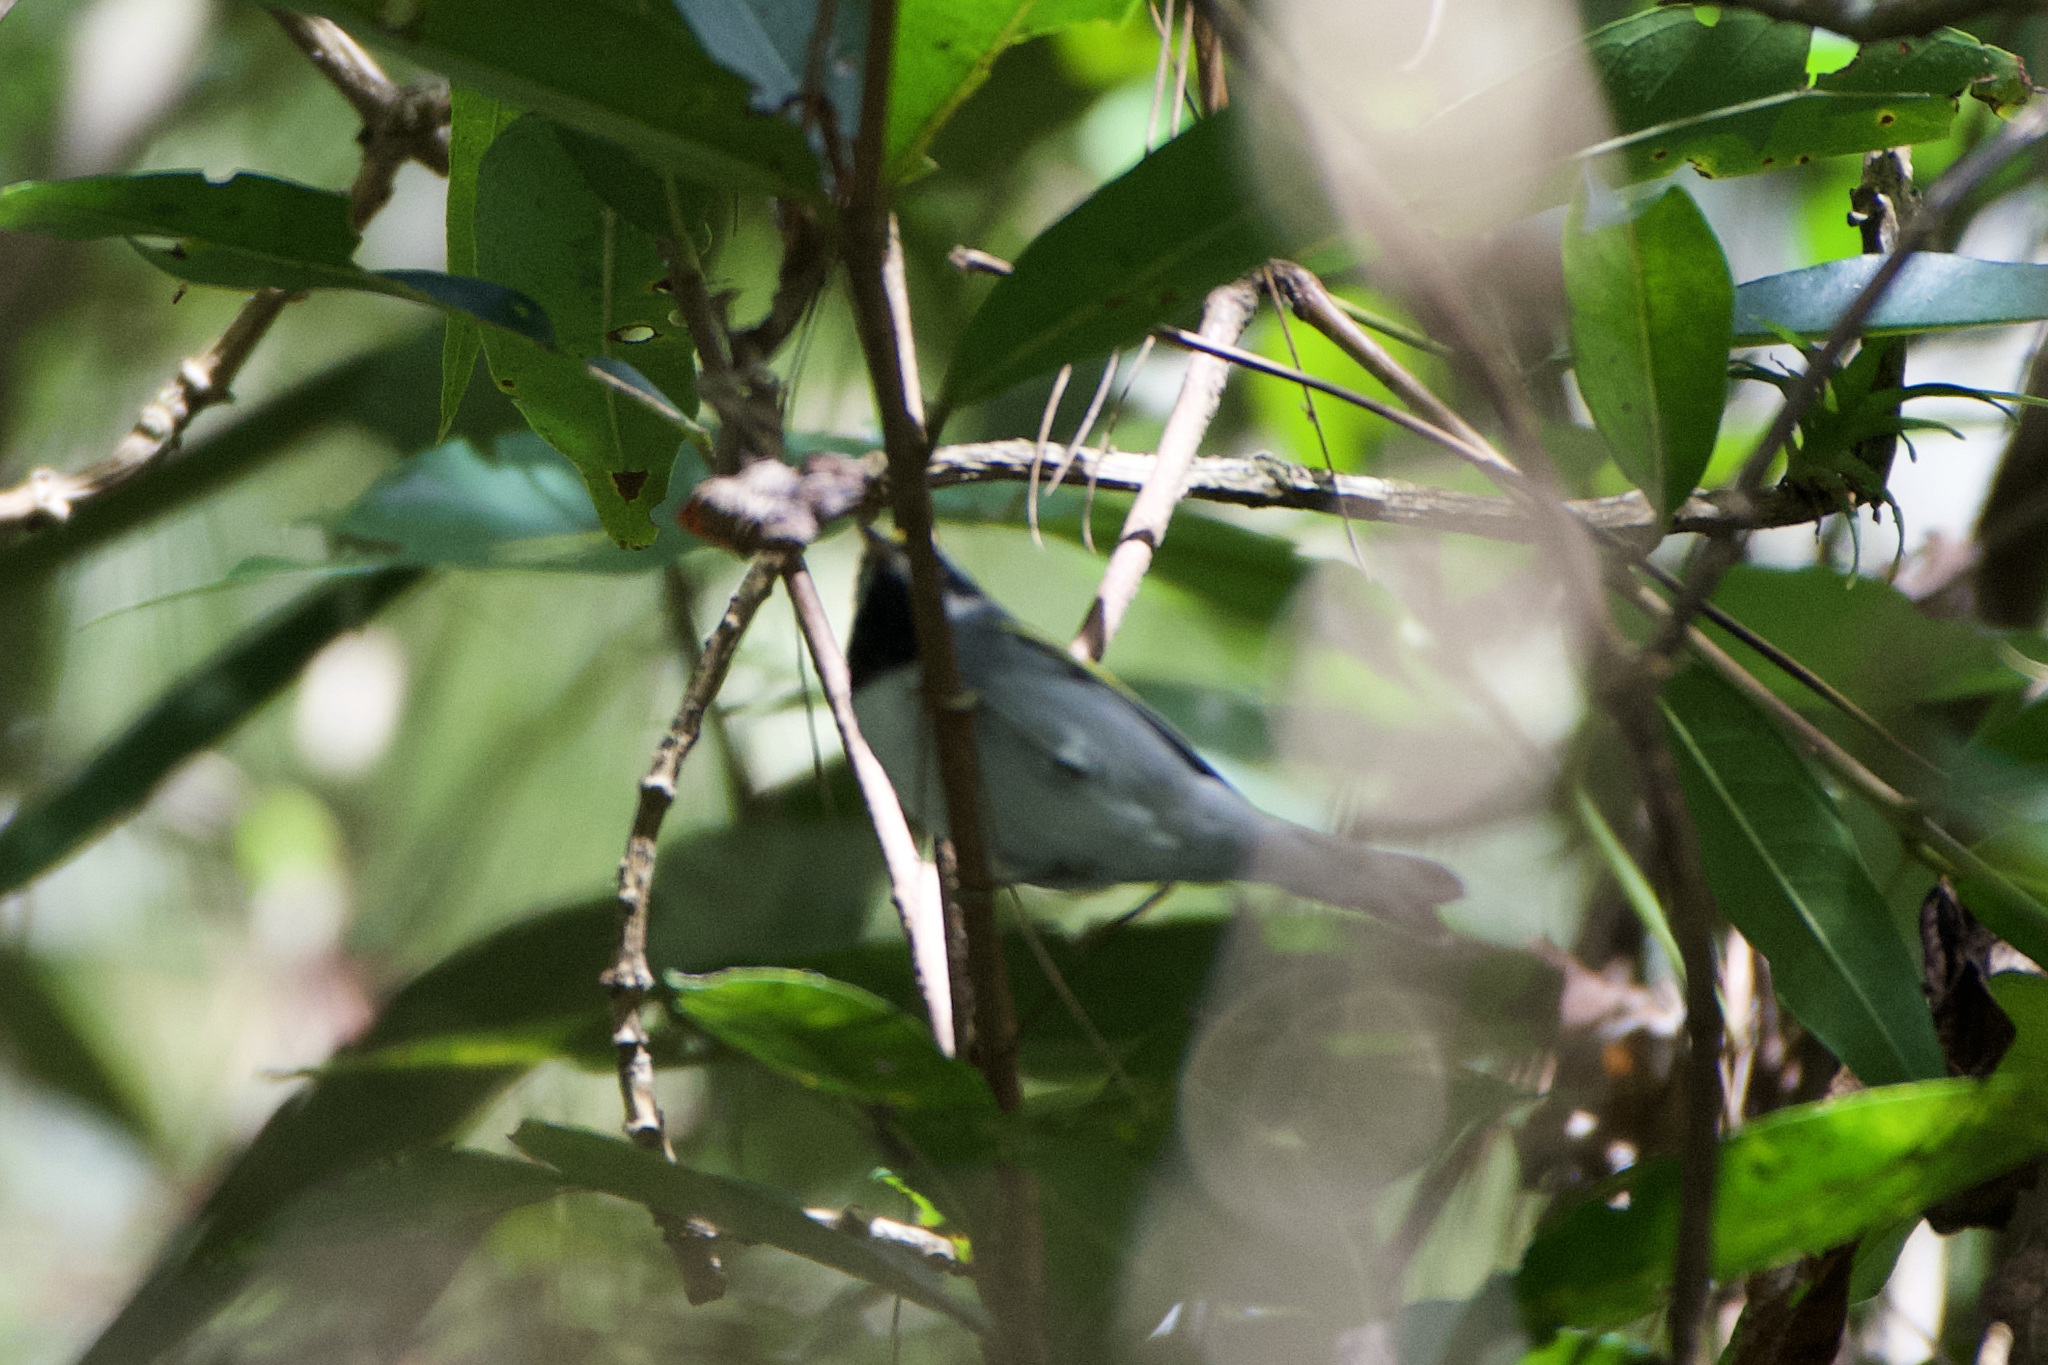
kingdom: Animalia
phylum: Chordata
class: Aves
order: Passeriformes
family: Parulidae
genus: Vermivora
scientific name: Vermivora chrysoptera
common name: Golden-winged warbler
